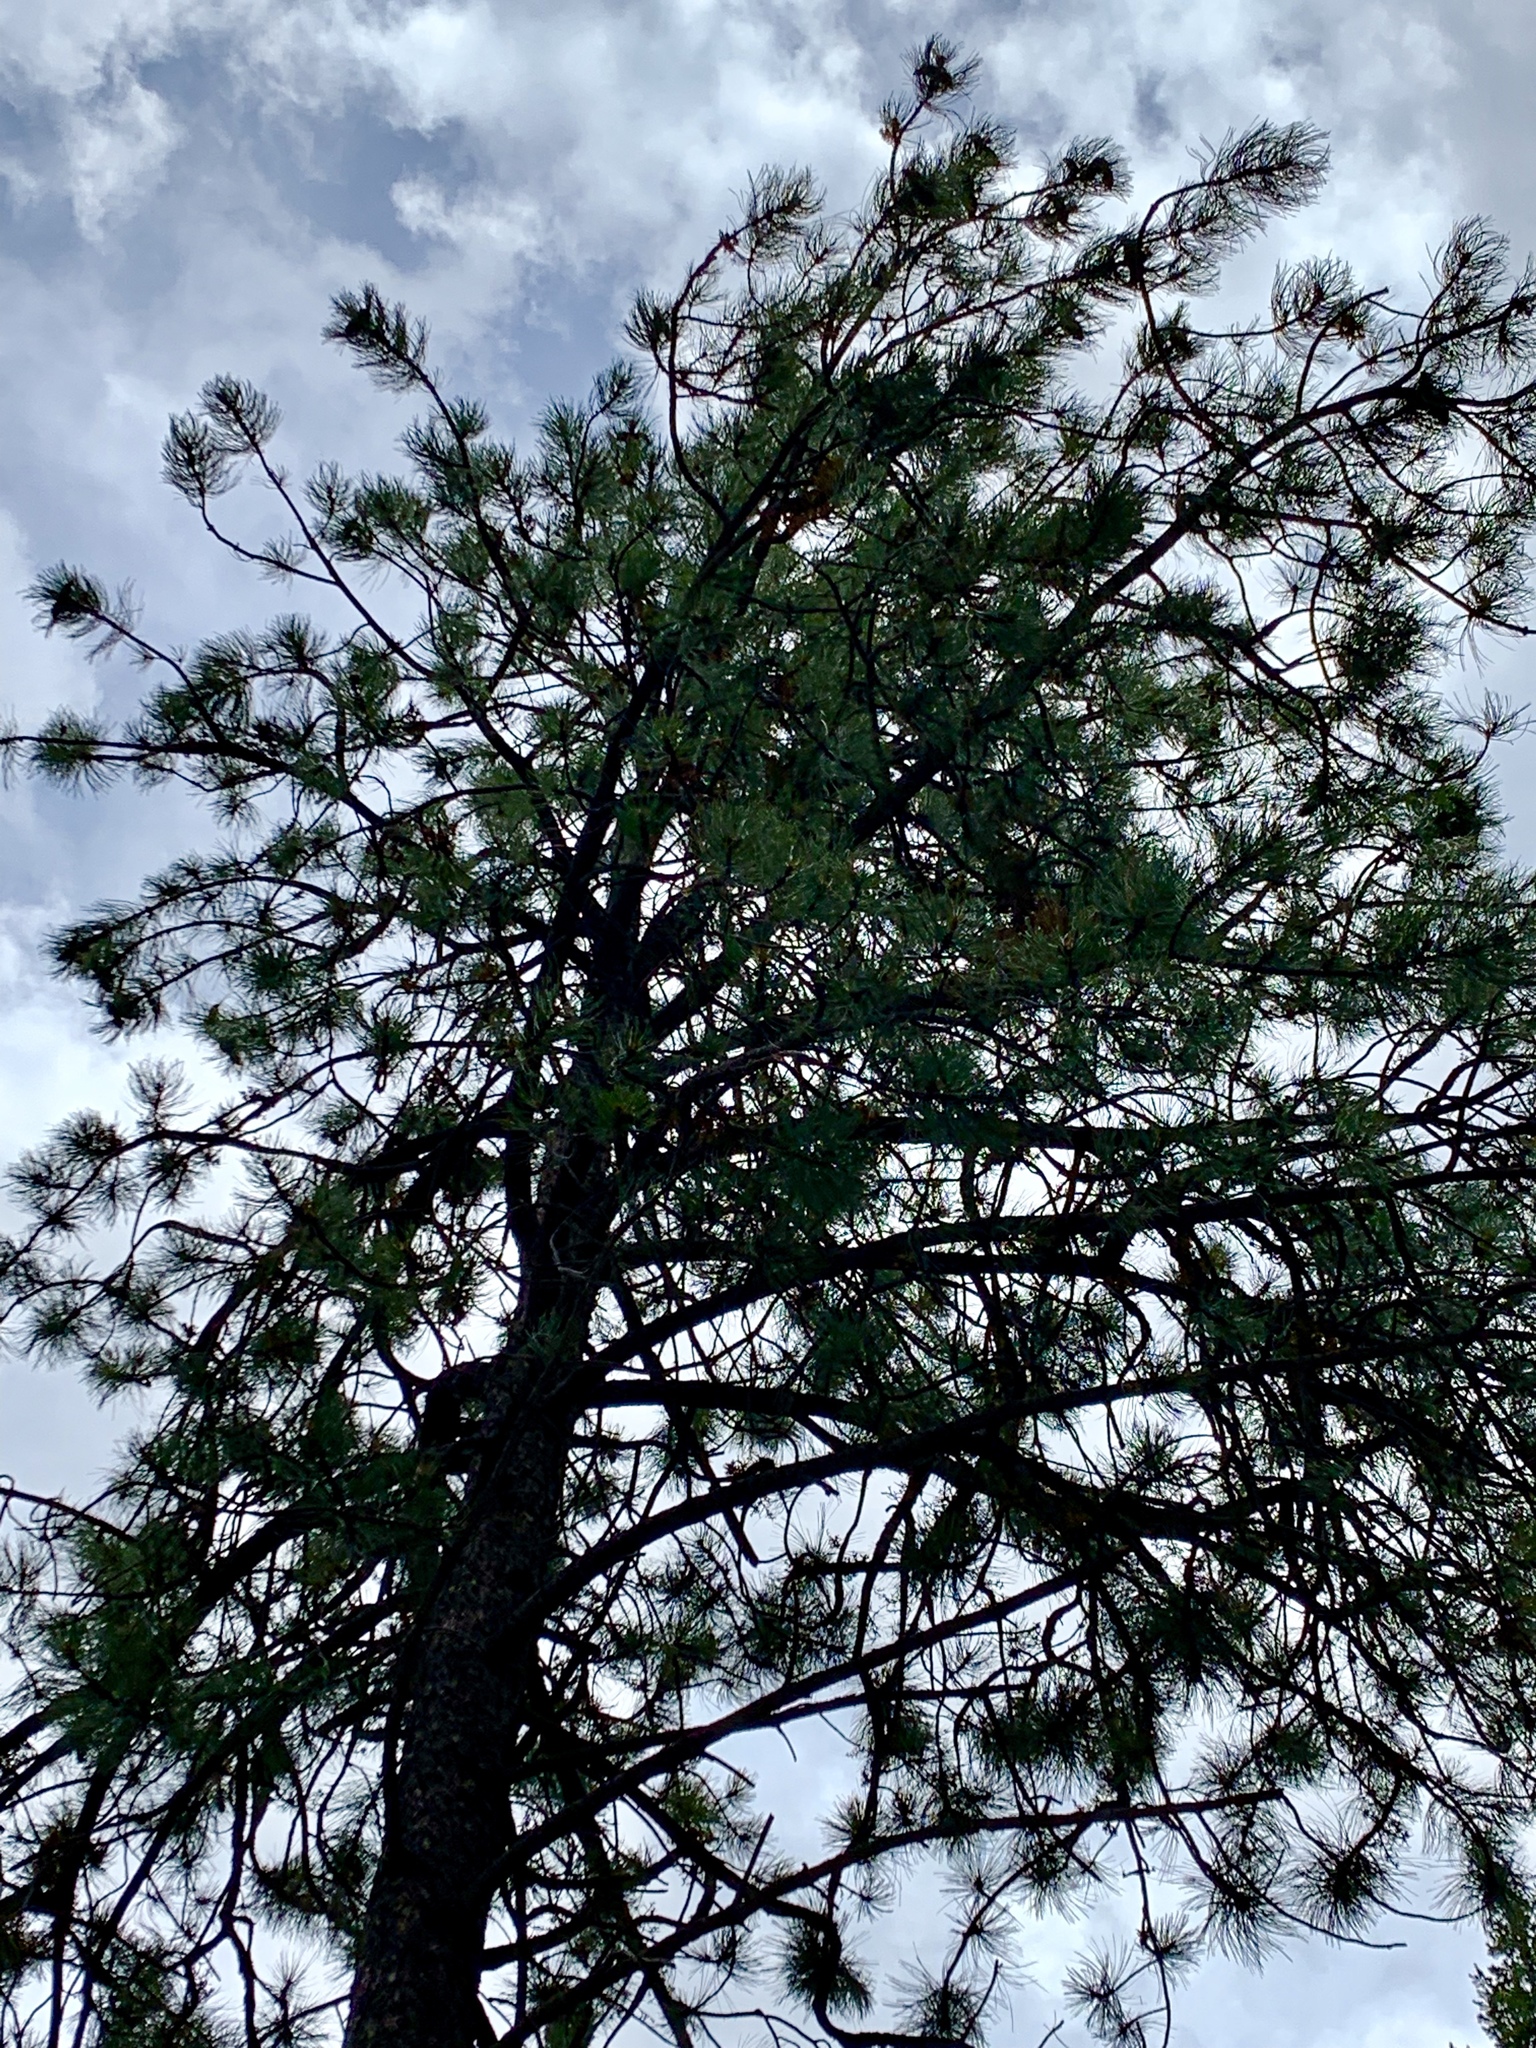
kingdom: Plantae
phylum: Tracheophyta
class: Pinopsida
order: Pinales
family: Pinaceae
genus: Pinus
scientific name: Pinus ponderosa
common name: Western yellow-pine
